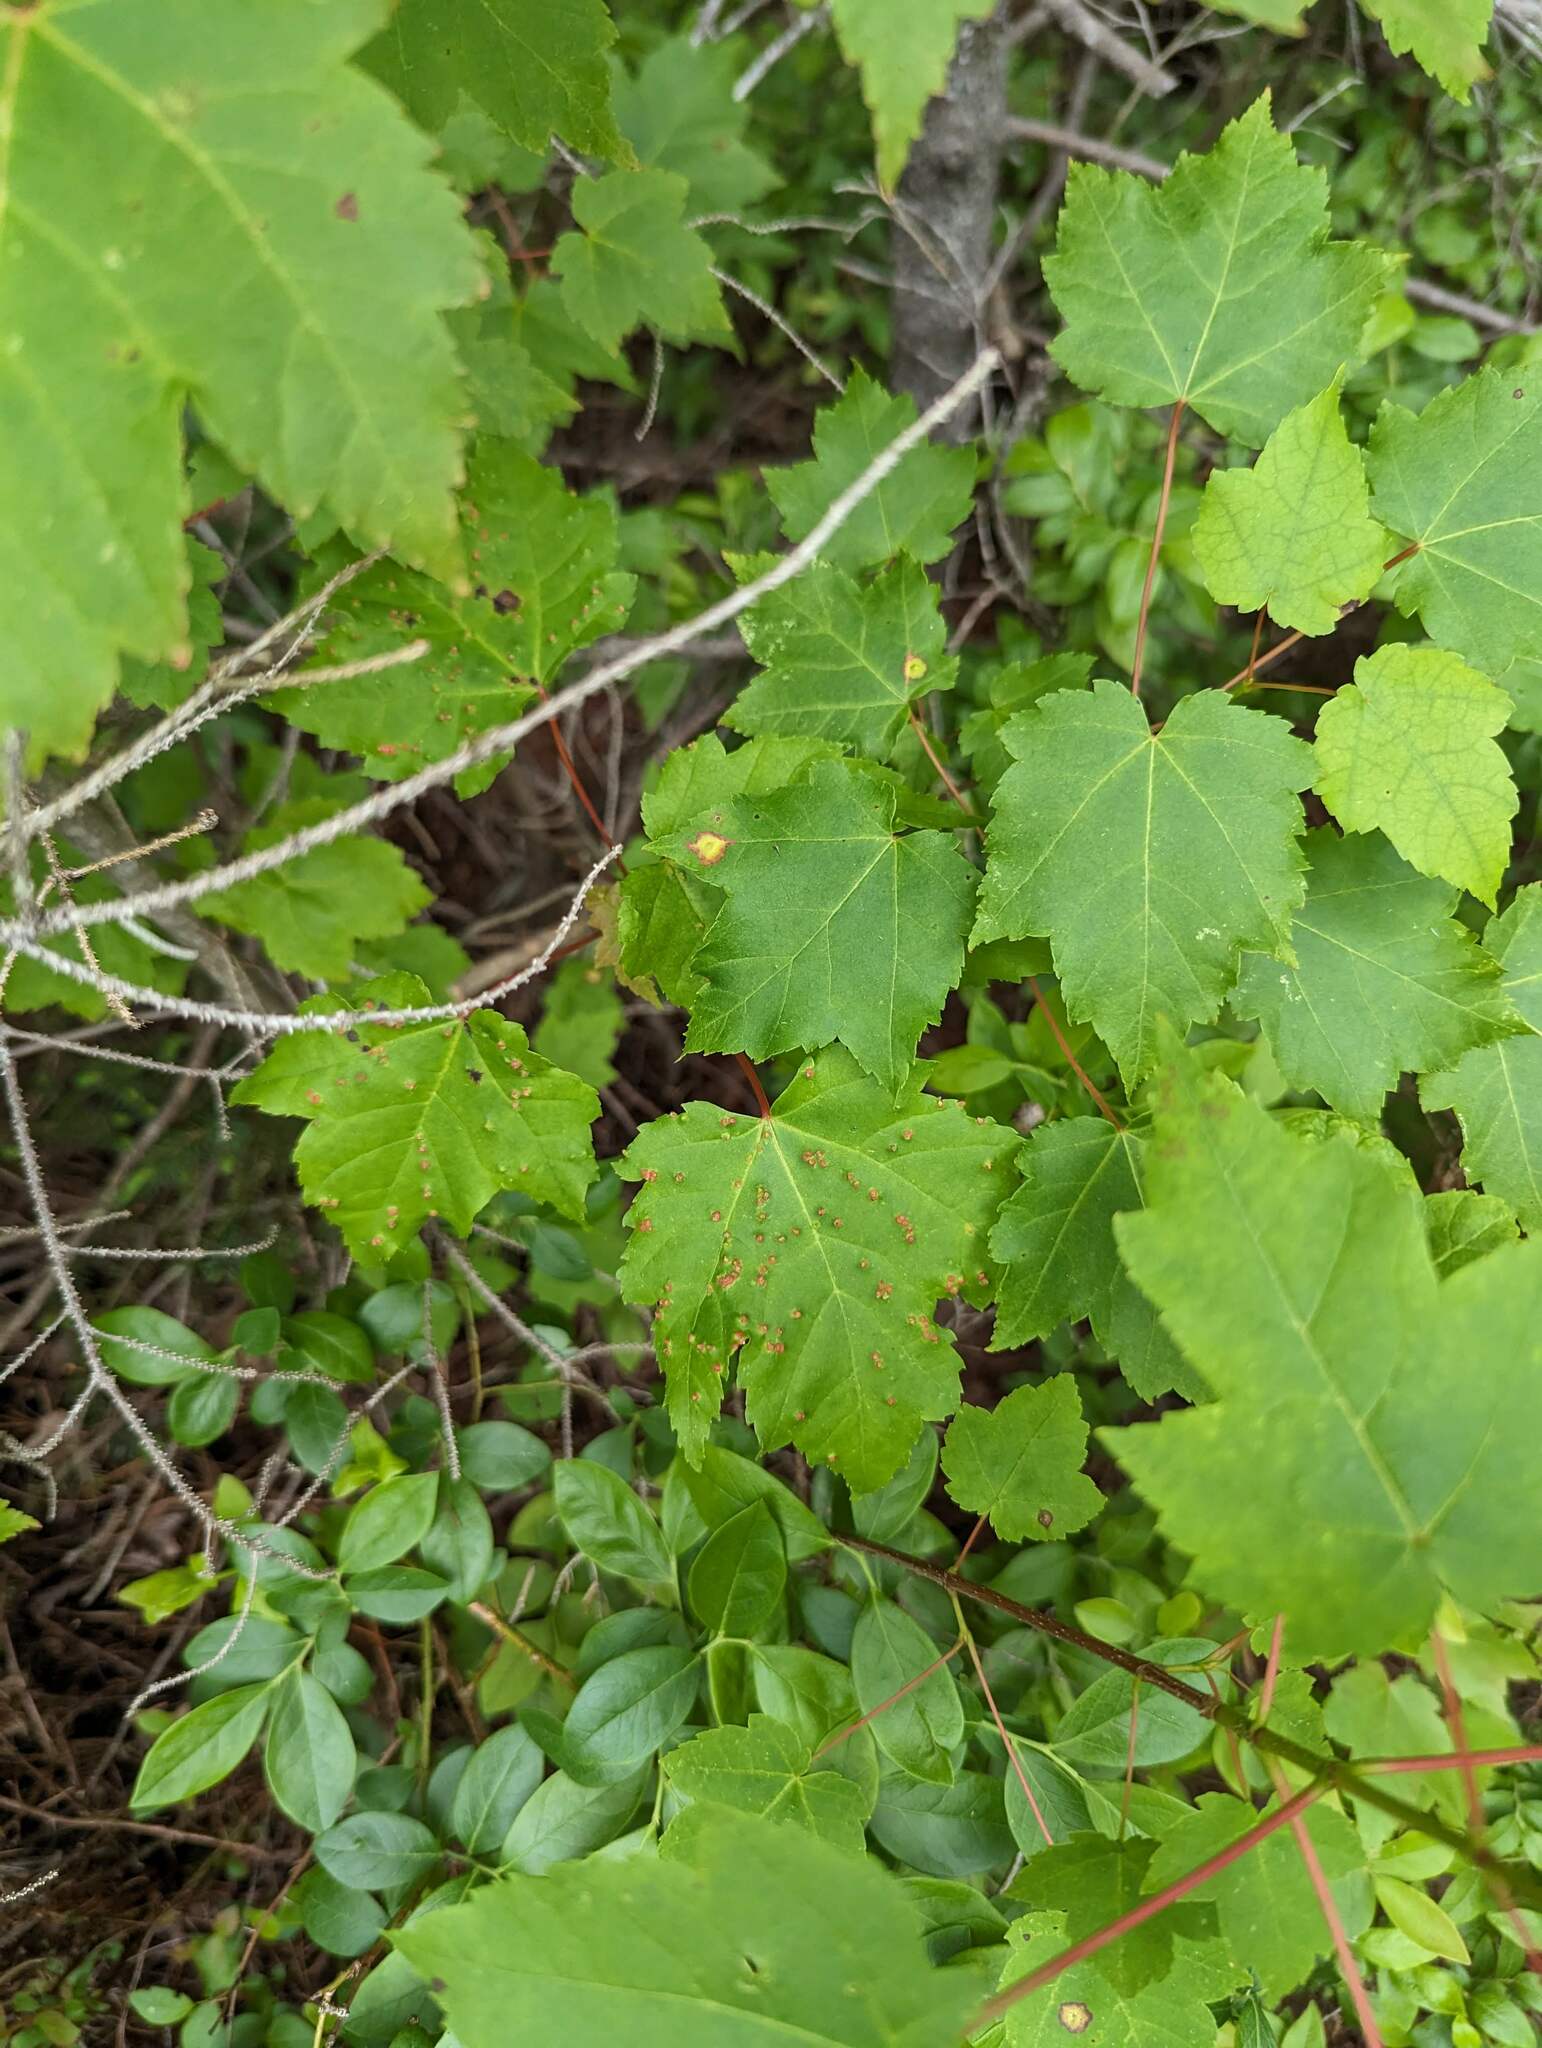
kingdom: Animalia
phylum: Arthropoda
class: Arachnida
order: Trombidiformes
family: Eriophyidae
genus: Vasates
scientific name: Vasates quadripedes
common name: Maple bladder gall mite
